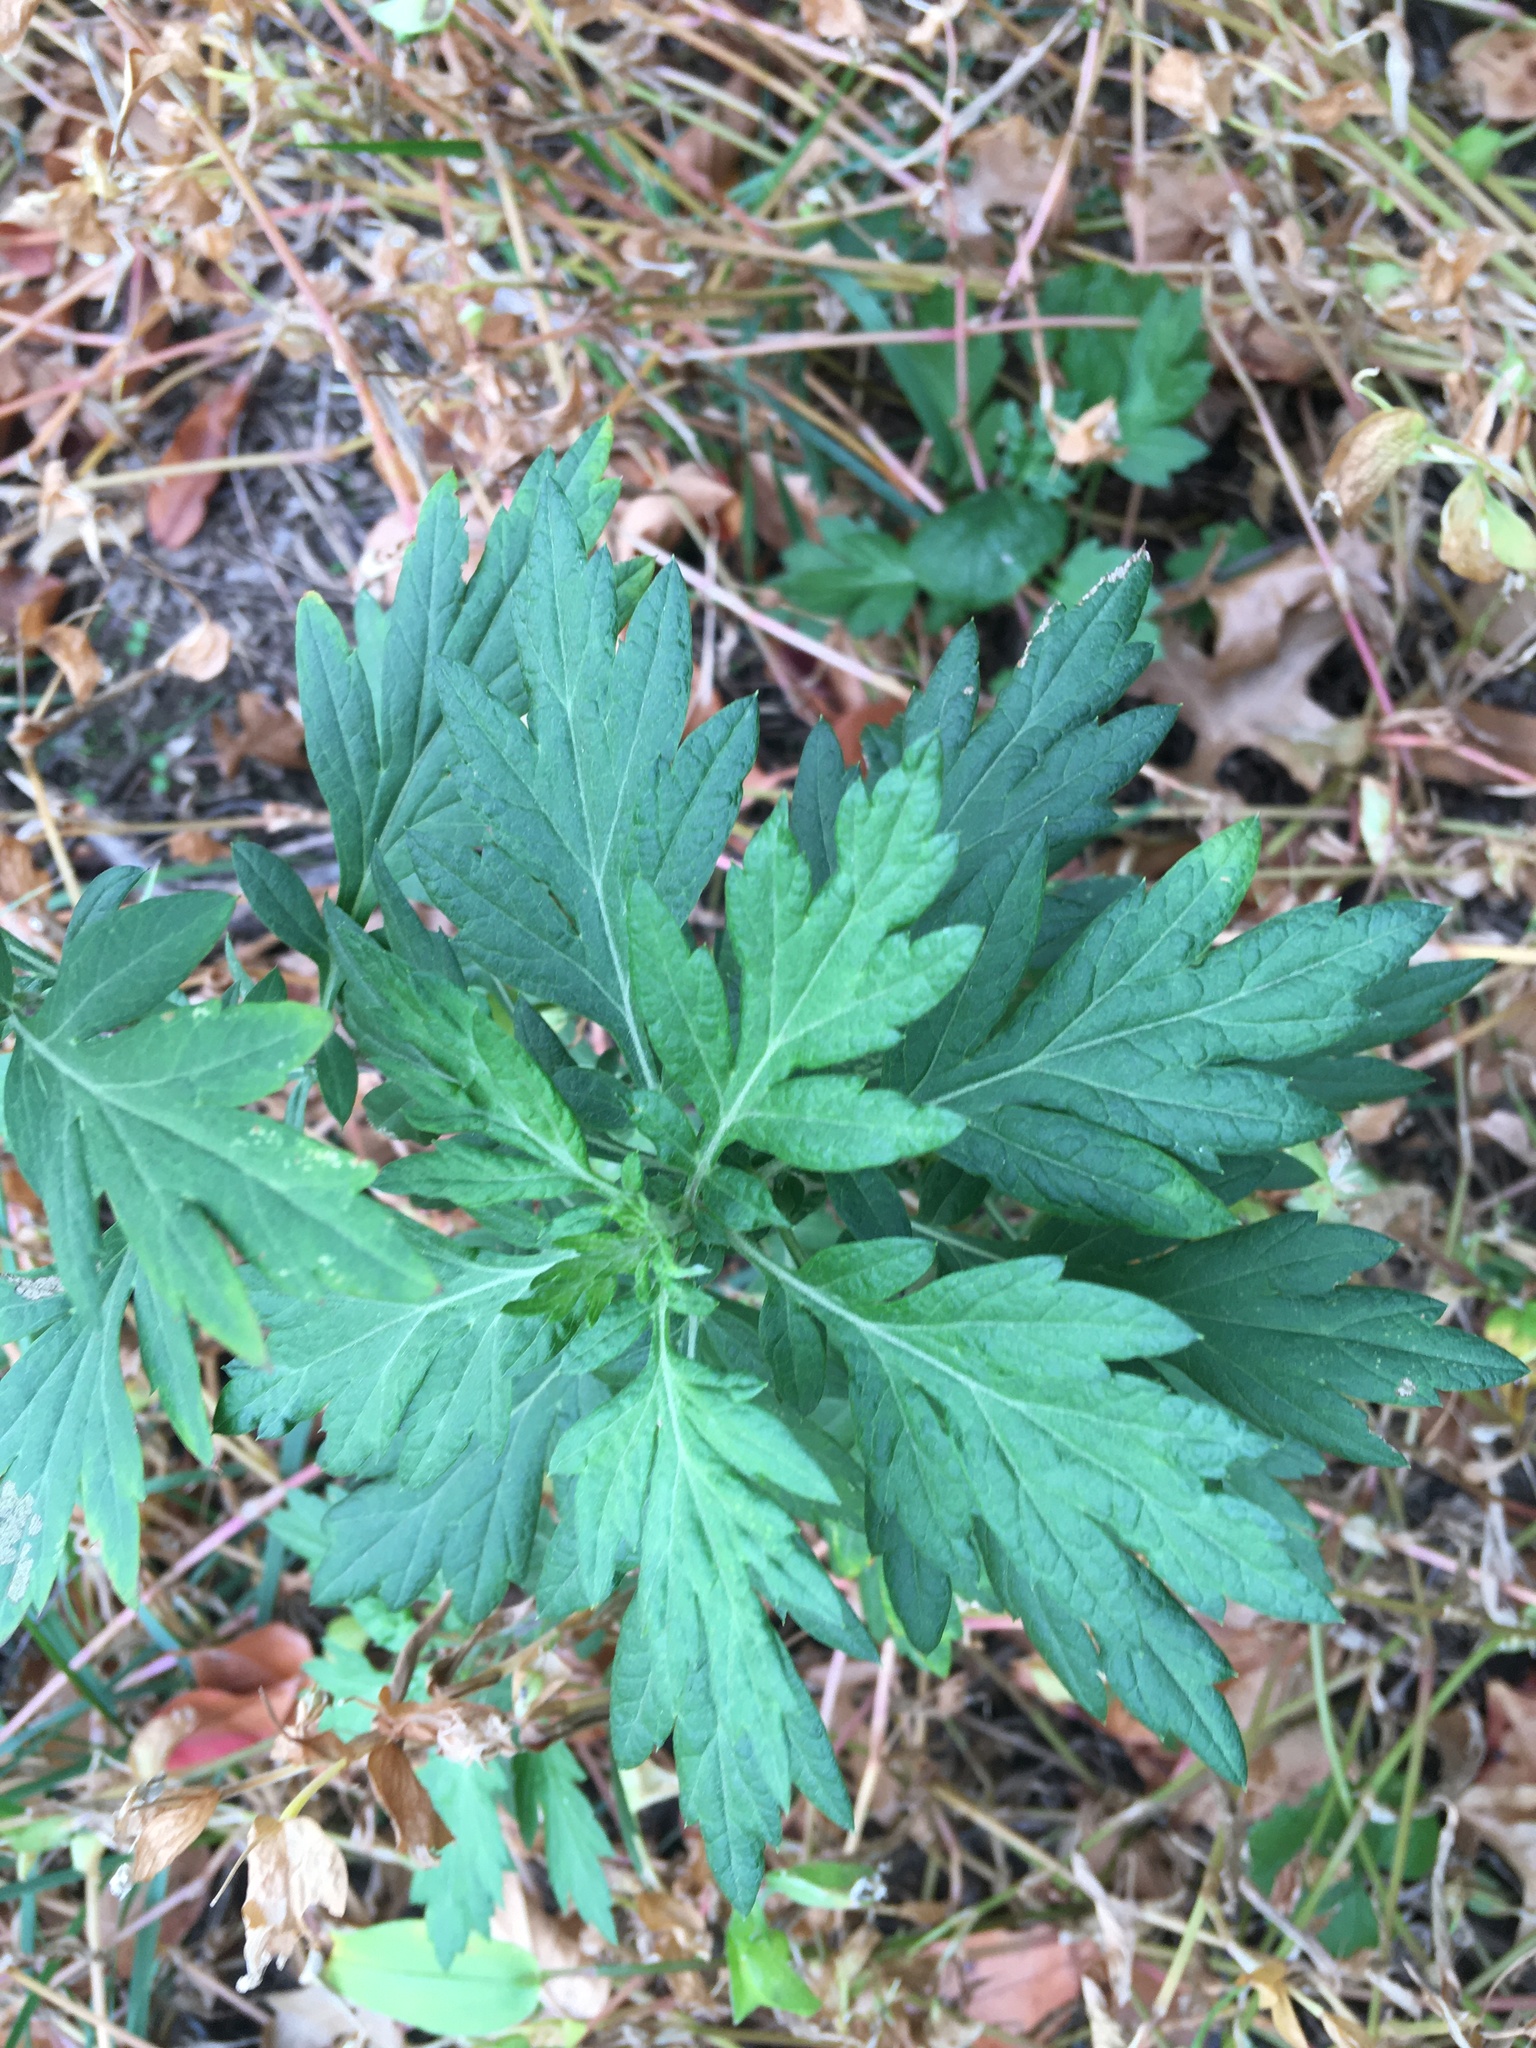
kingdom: Plantae
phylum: Tracheophyta
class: Magnoliopsida
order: Asterales
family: Asteraceae
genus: Artemisia
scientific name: Artemisia vulgaris
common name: Mugwort
